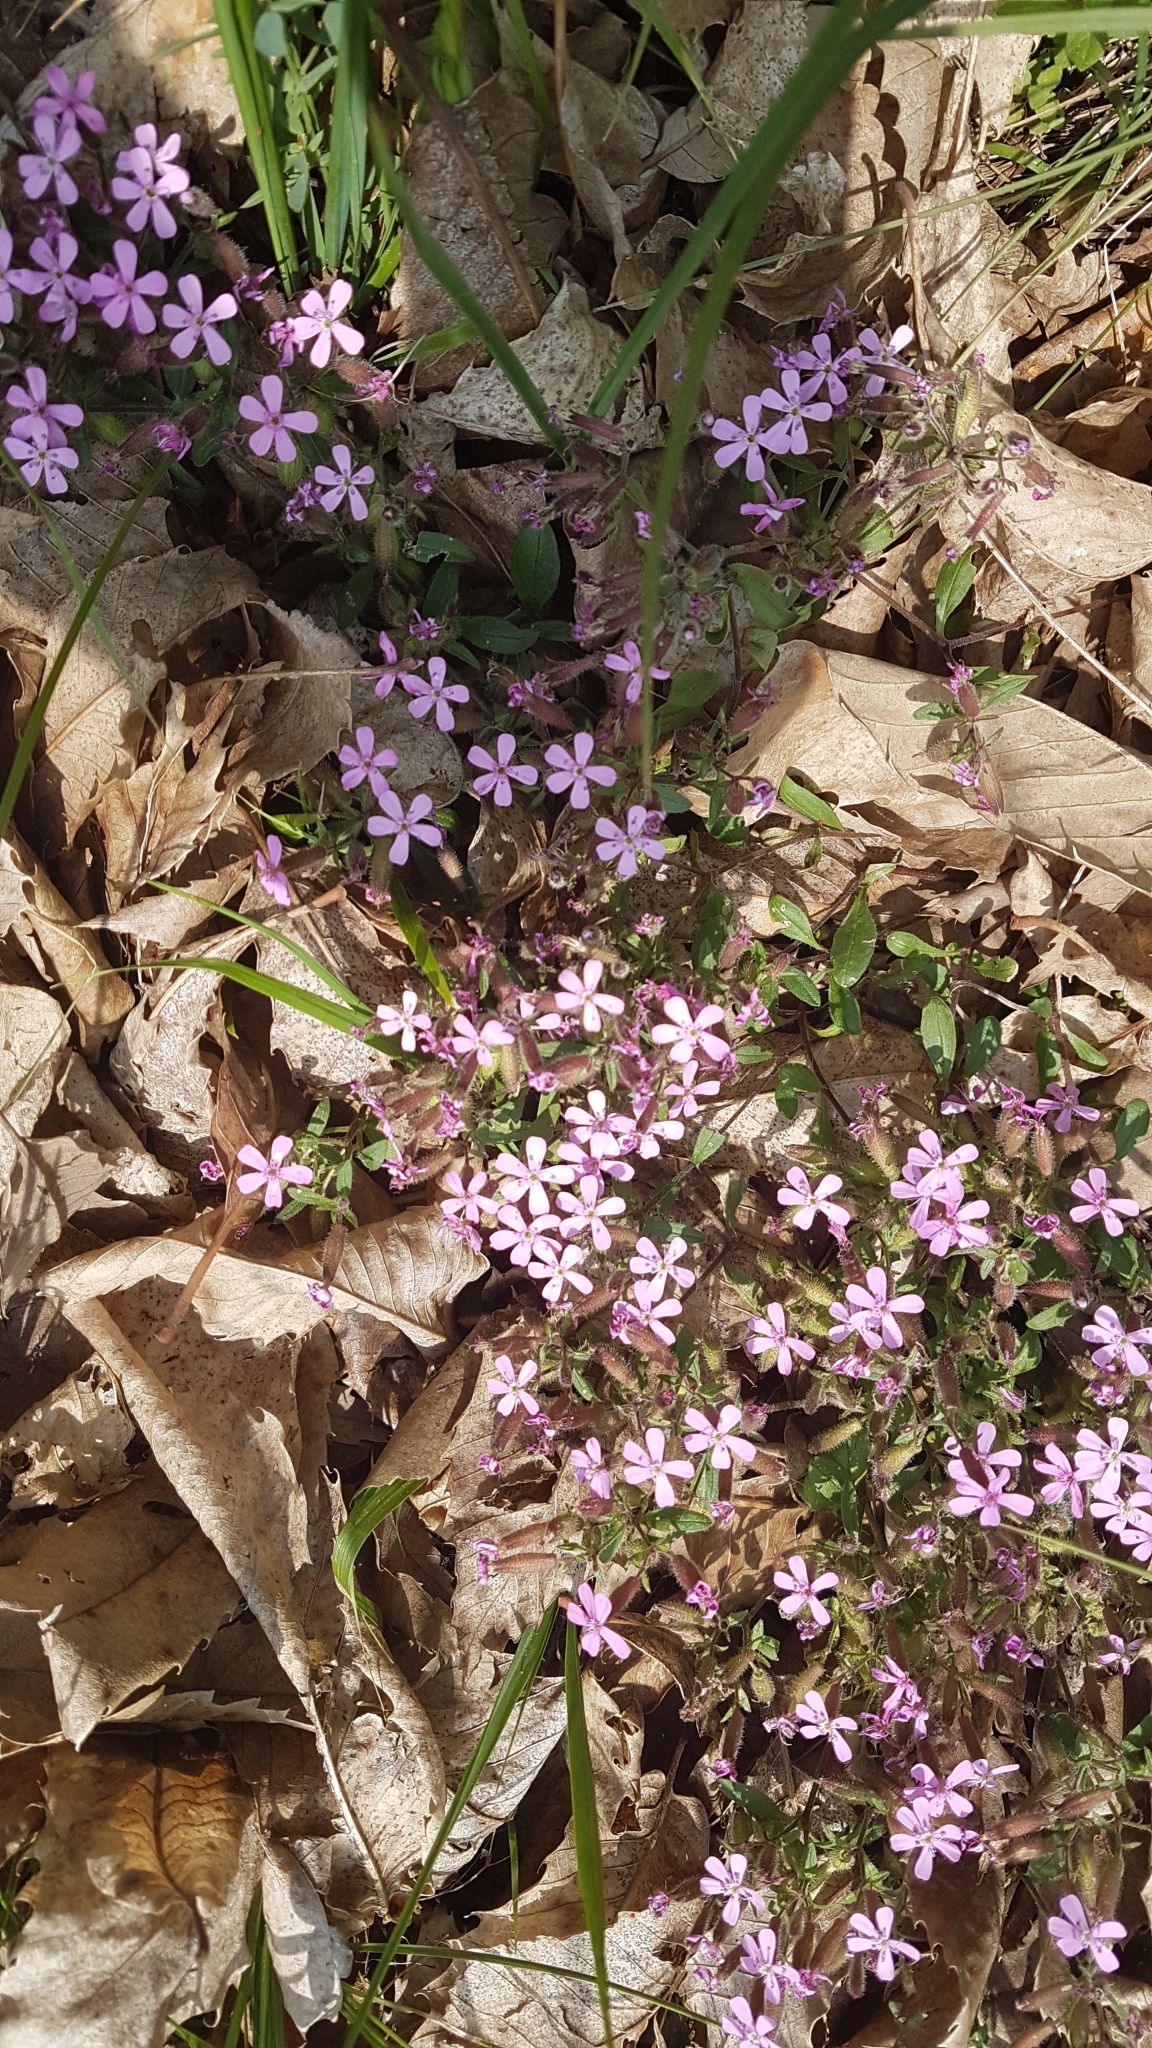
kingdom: Plantae
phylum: Tracheophyta
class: Magnoliopsida
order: Caryophyllales
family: Caryophyllaceae
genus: Saponaria
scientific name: Saponaria ocymoides
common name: Rock soapwort
